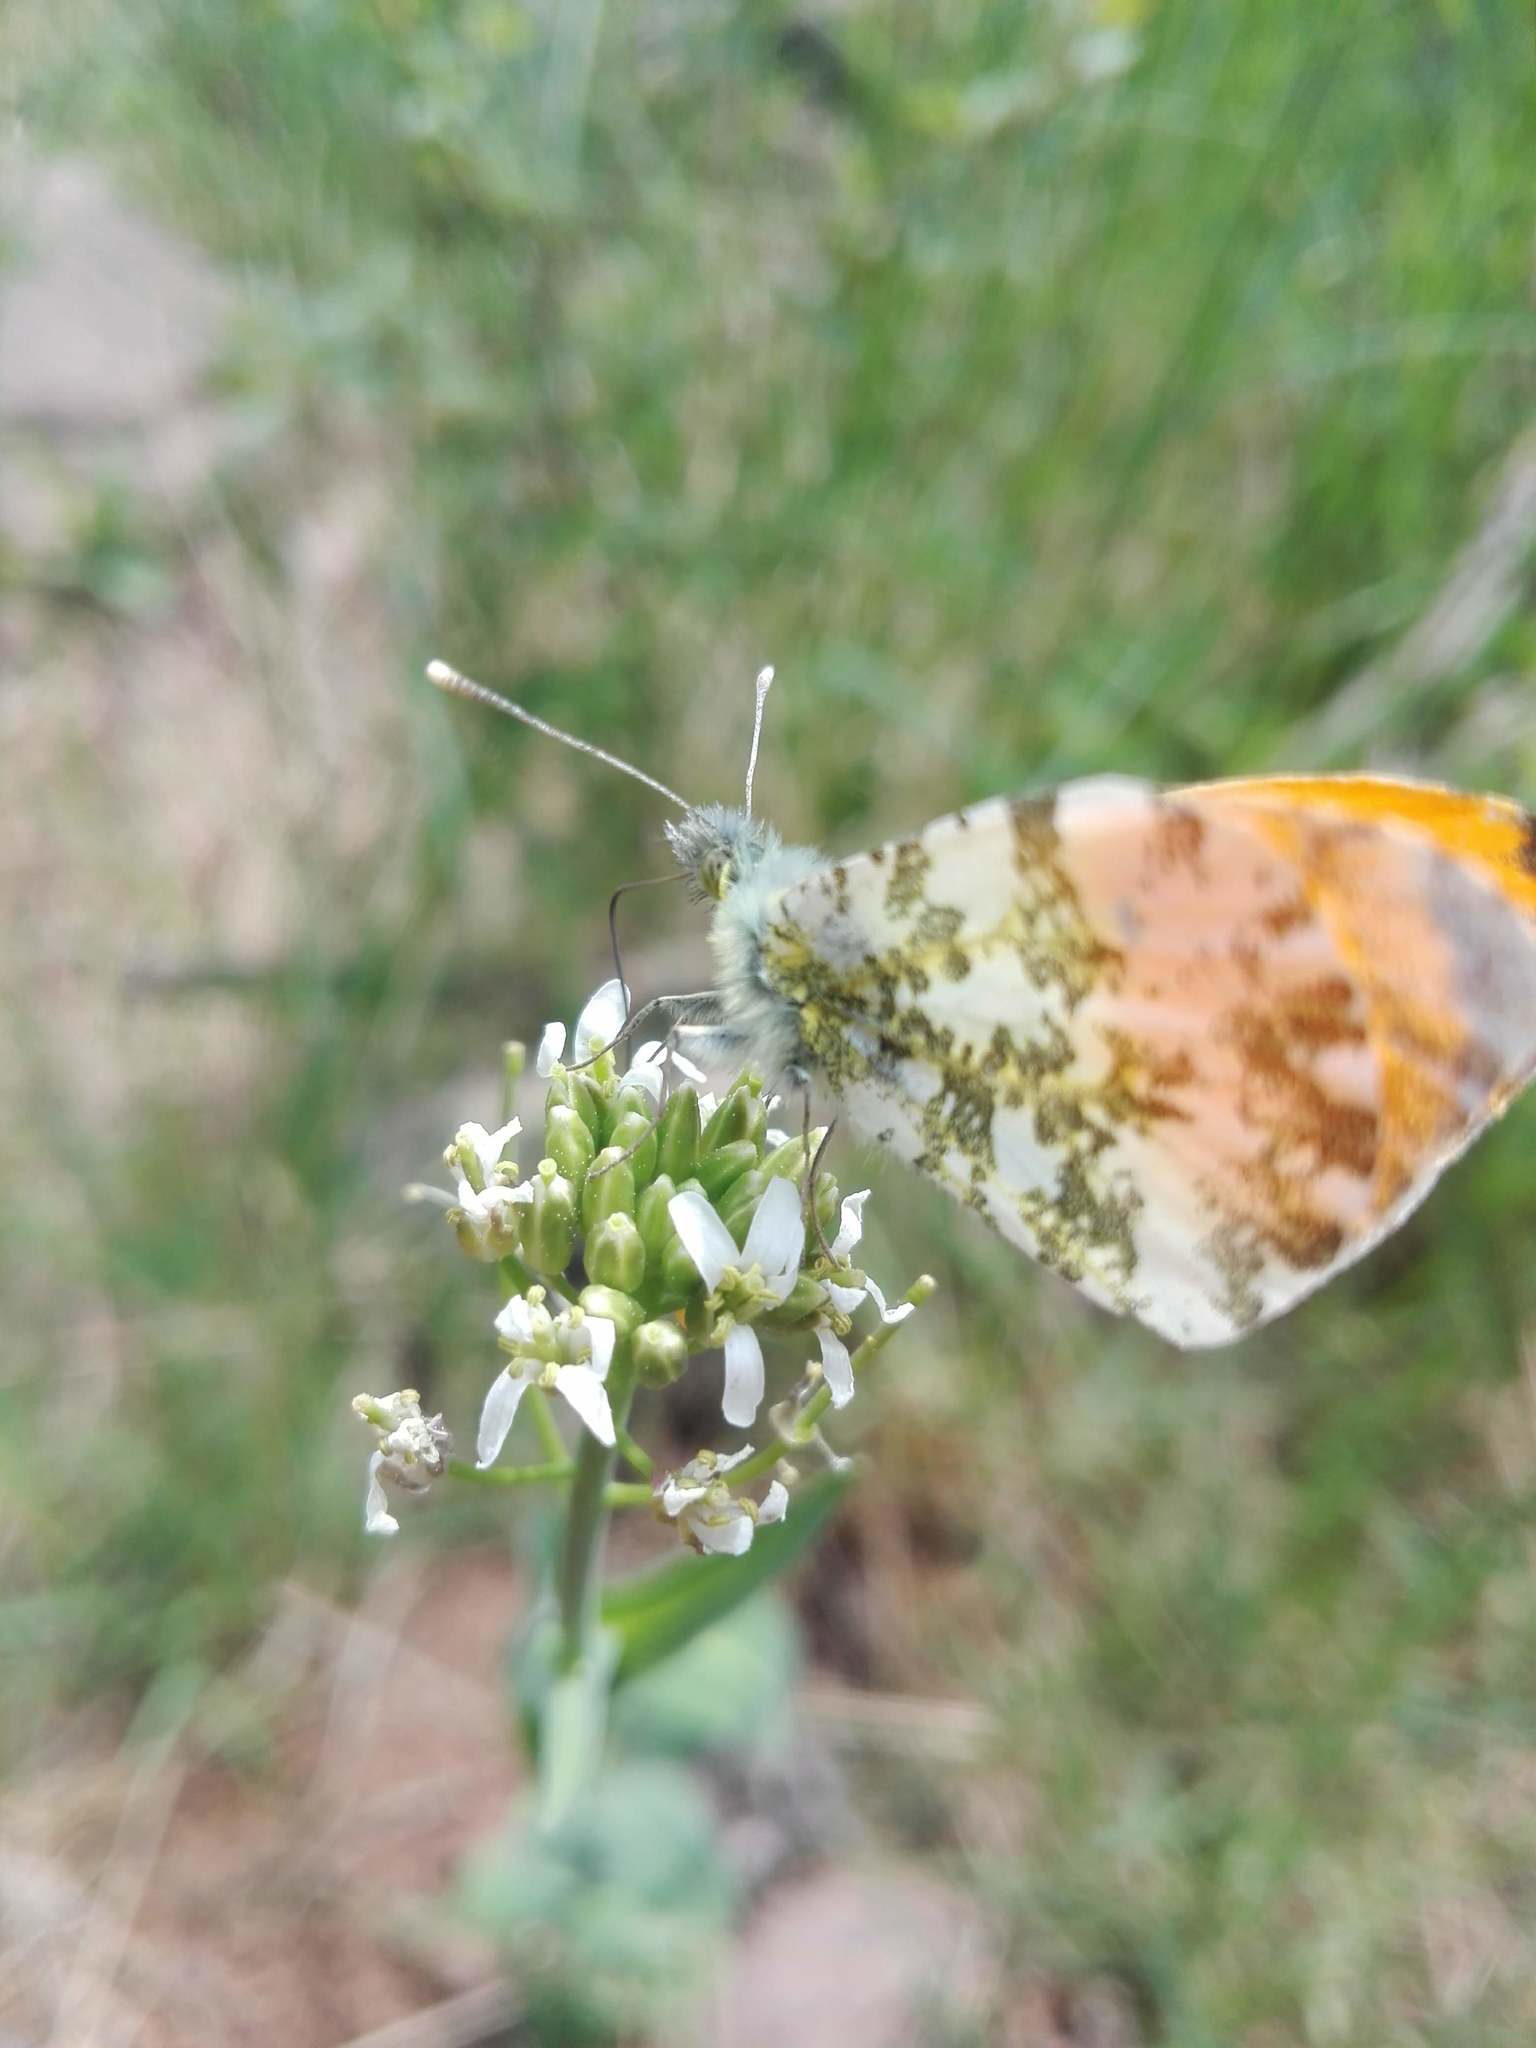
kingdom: Animalia
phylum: Arthropoda
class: Insecta
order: Lepidoptera
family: Pieridae
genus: Anthocharis
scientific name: Anthocharis cardamines
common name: Orange-tip
